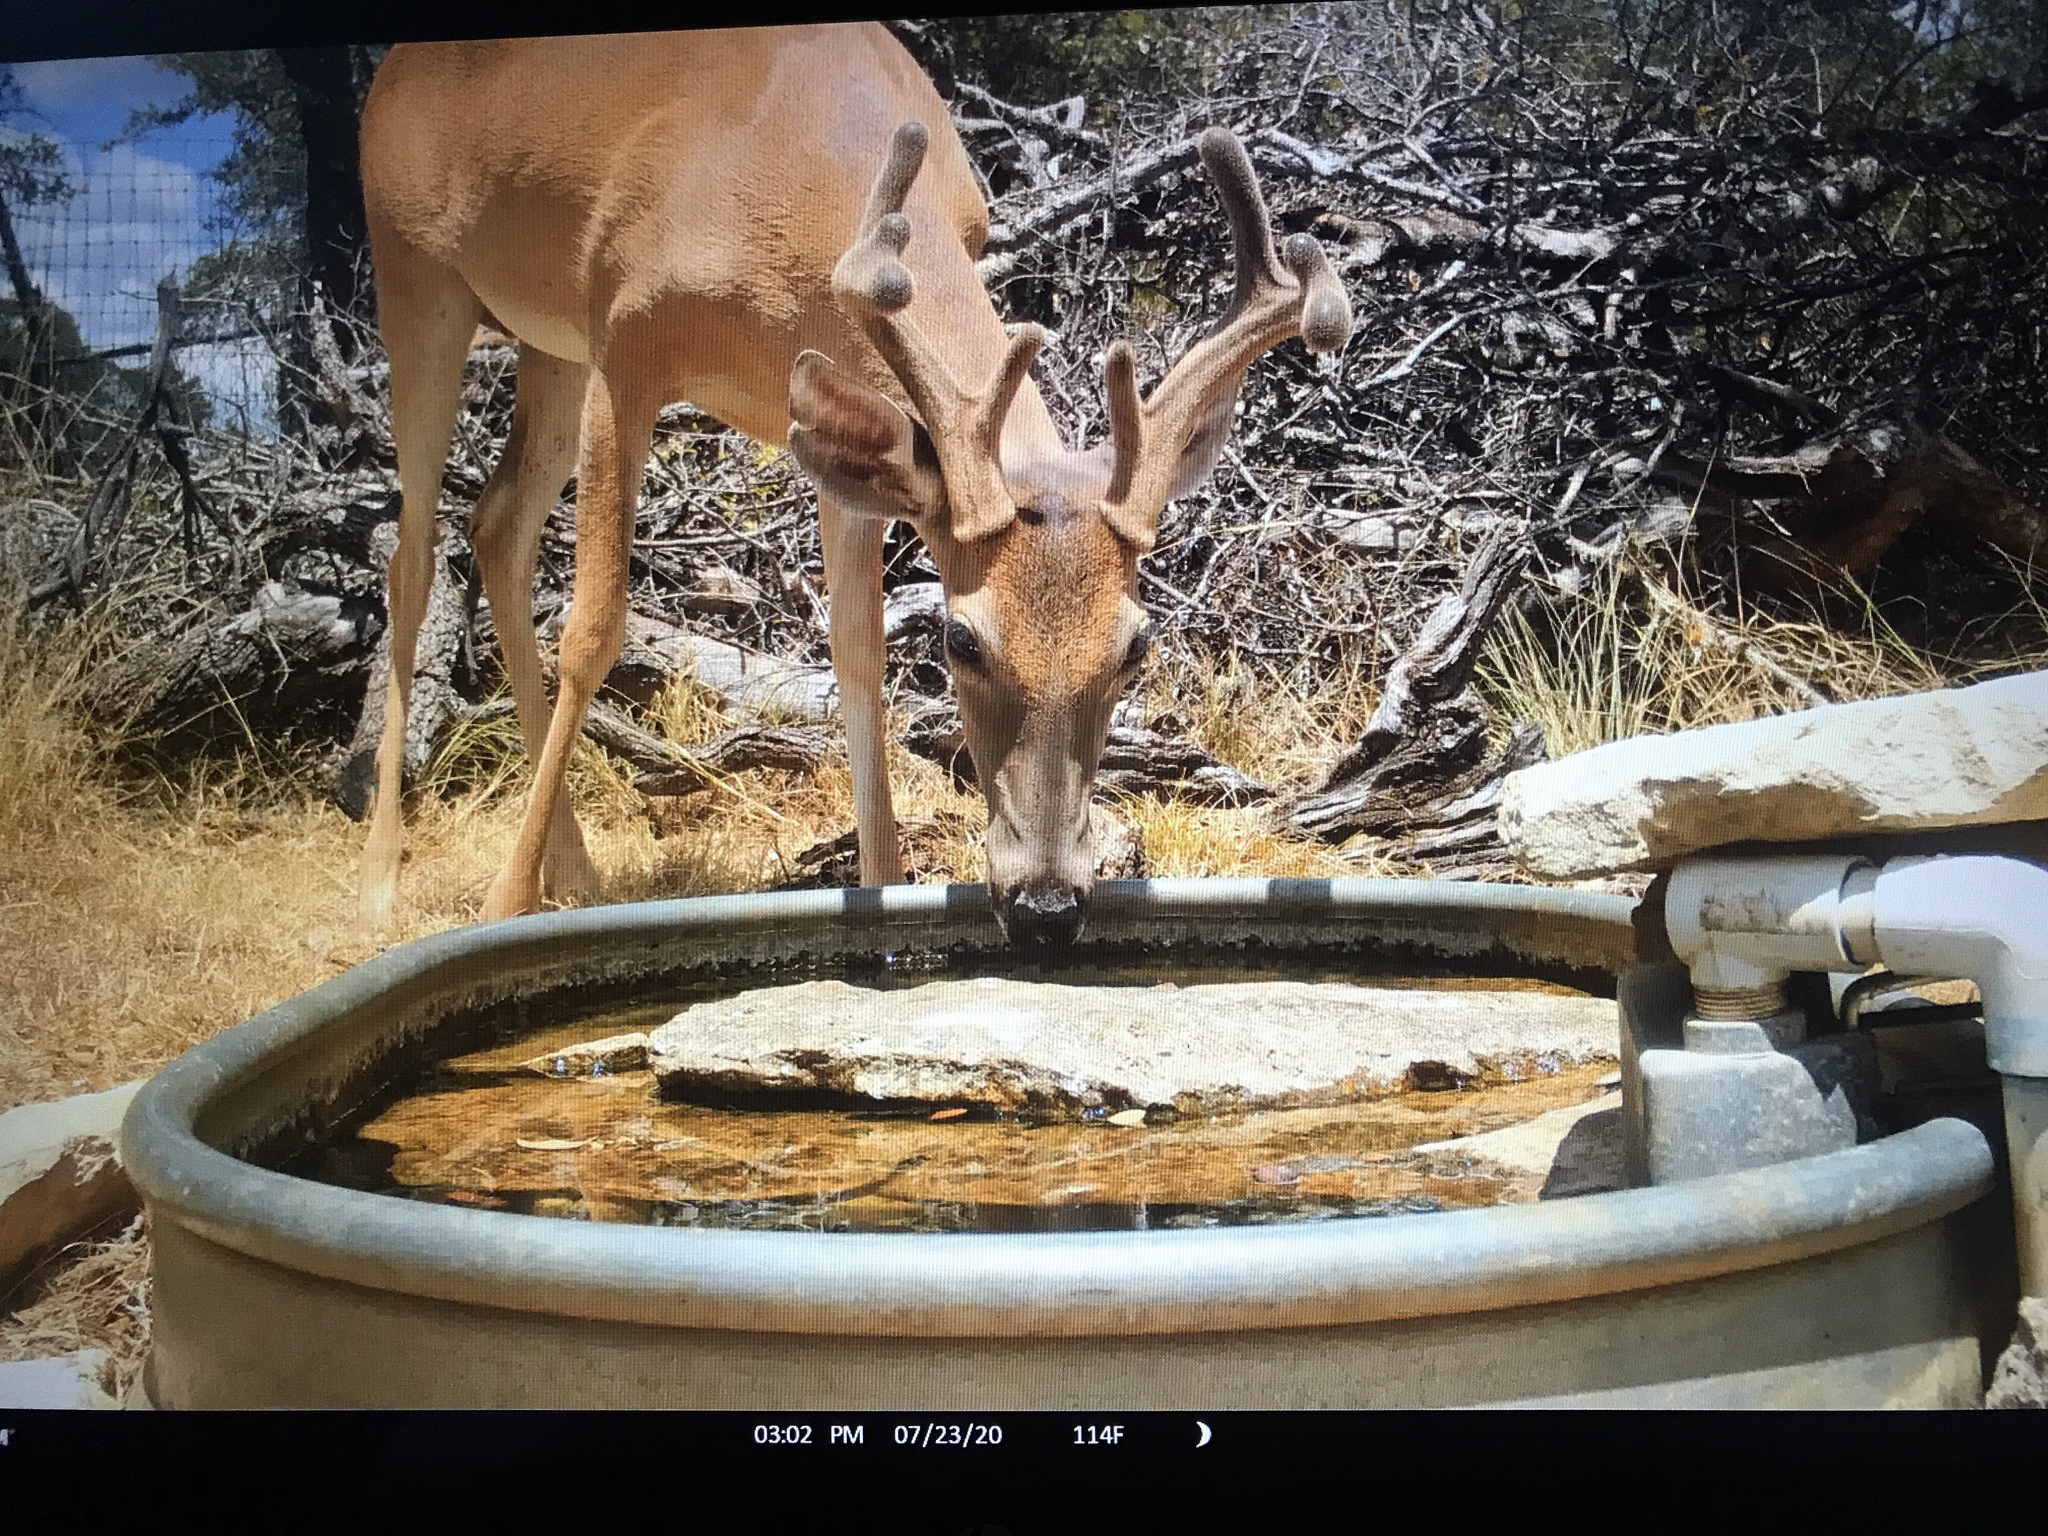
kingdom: Animalia
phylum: Chordata
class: Mammalia
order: Artiodactyla
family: Cervidae
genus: Odocoileus
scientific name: Odocoileus virginianus
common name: White-tailed deer
